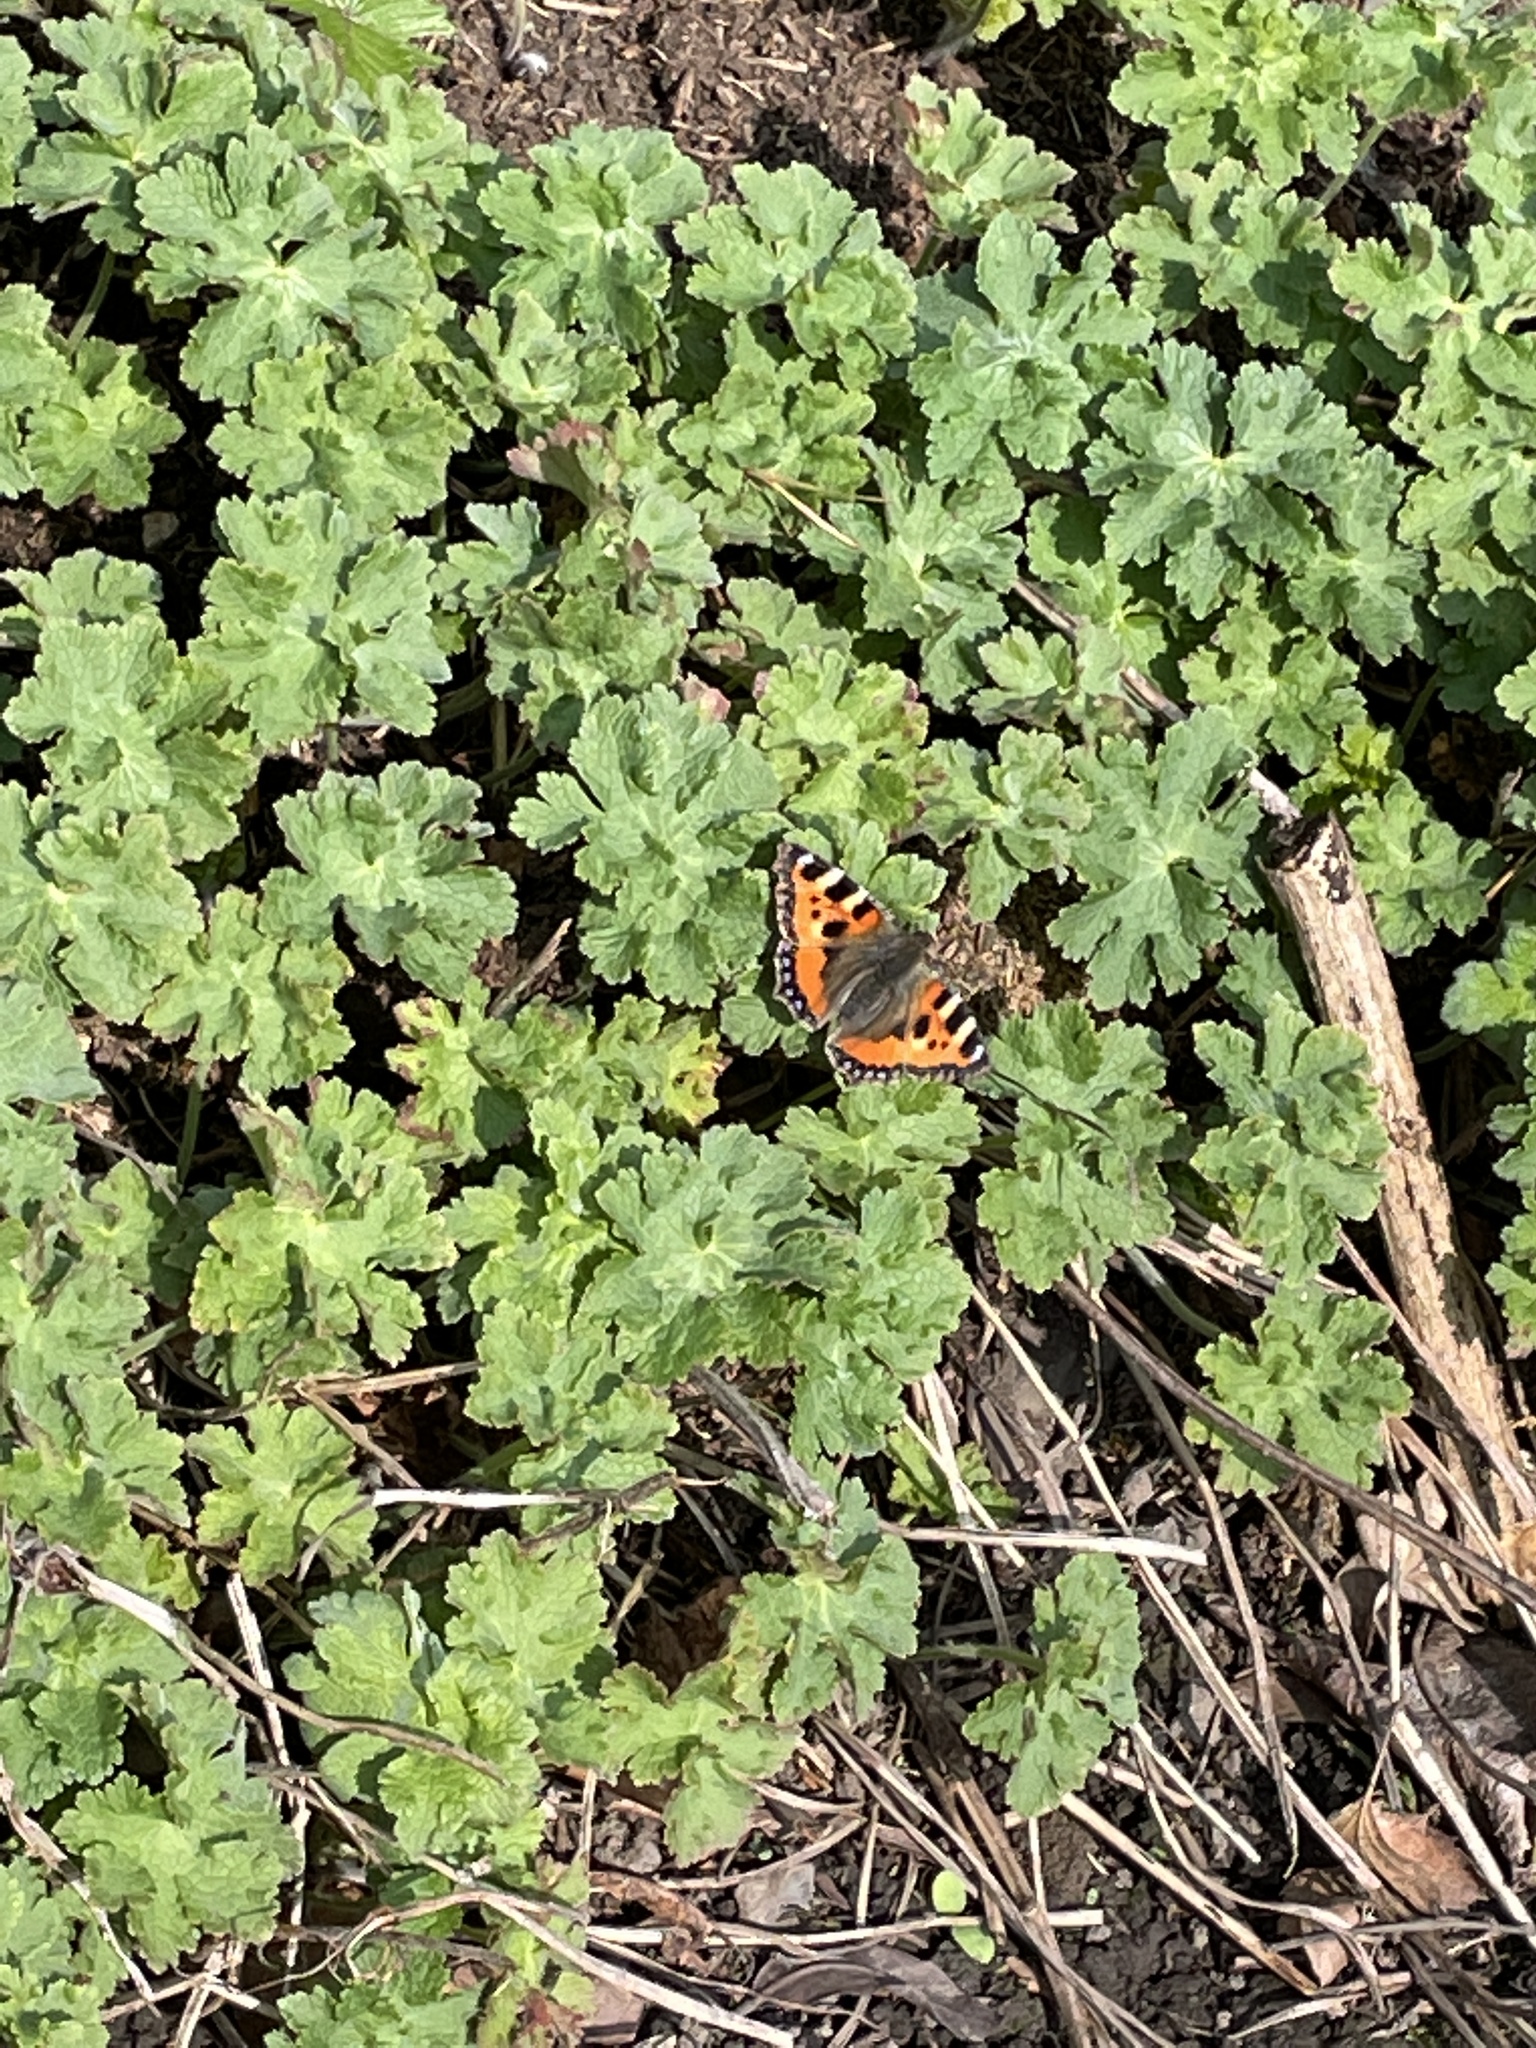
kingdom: Animalia
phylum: Arthropoda
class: Insecta
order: Lepidoptera
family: Nymphalidae
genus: Aglais
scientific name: Aglais urticae
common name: Small tortoiseshell
